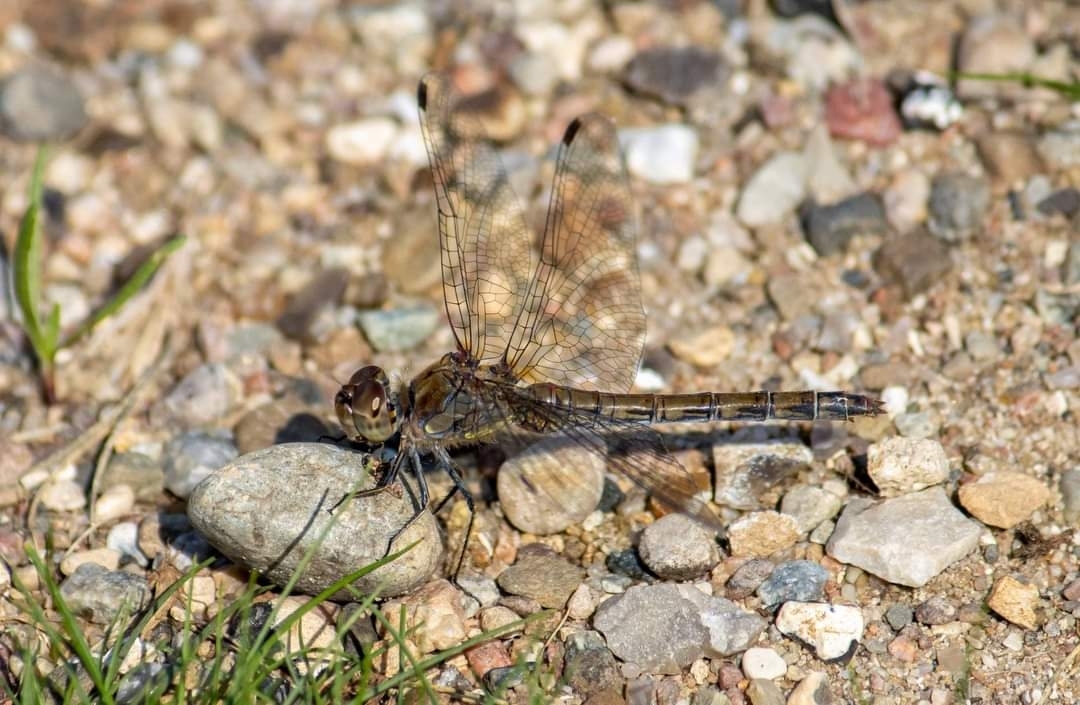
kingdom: Animalia
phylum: Arthropoda
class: Insecta
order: Odonata
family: Libellulidae
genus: Sympetrum
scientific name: Sympetrum striolatum
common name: Common darter
